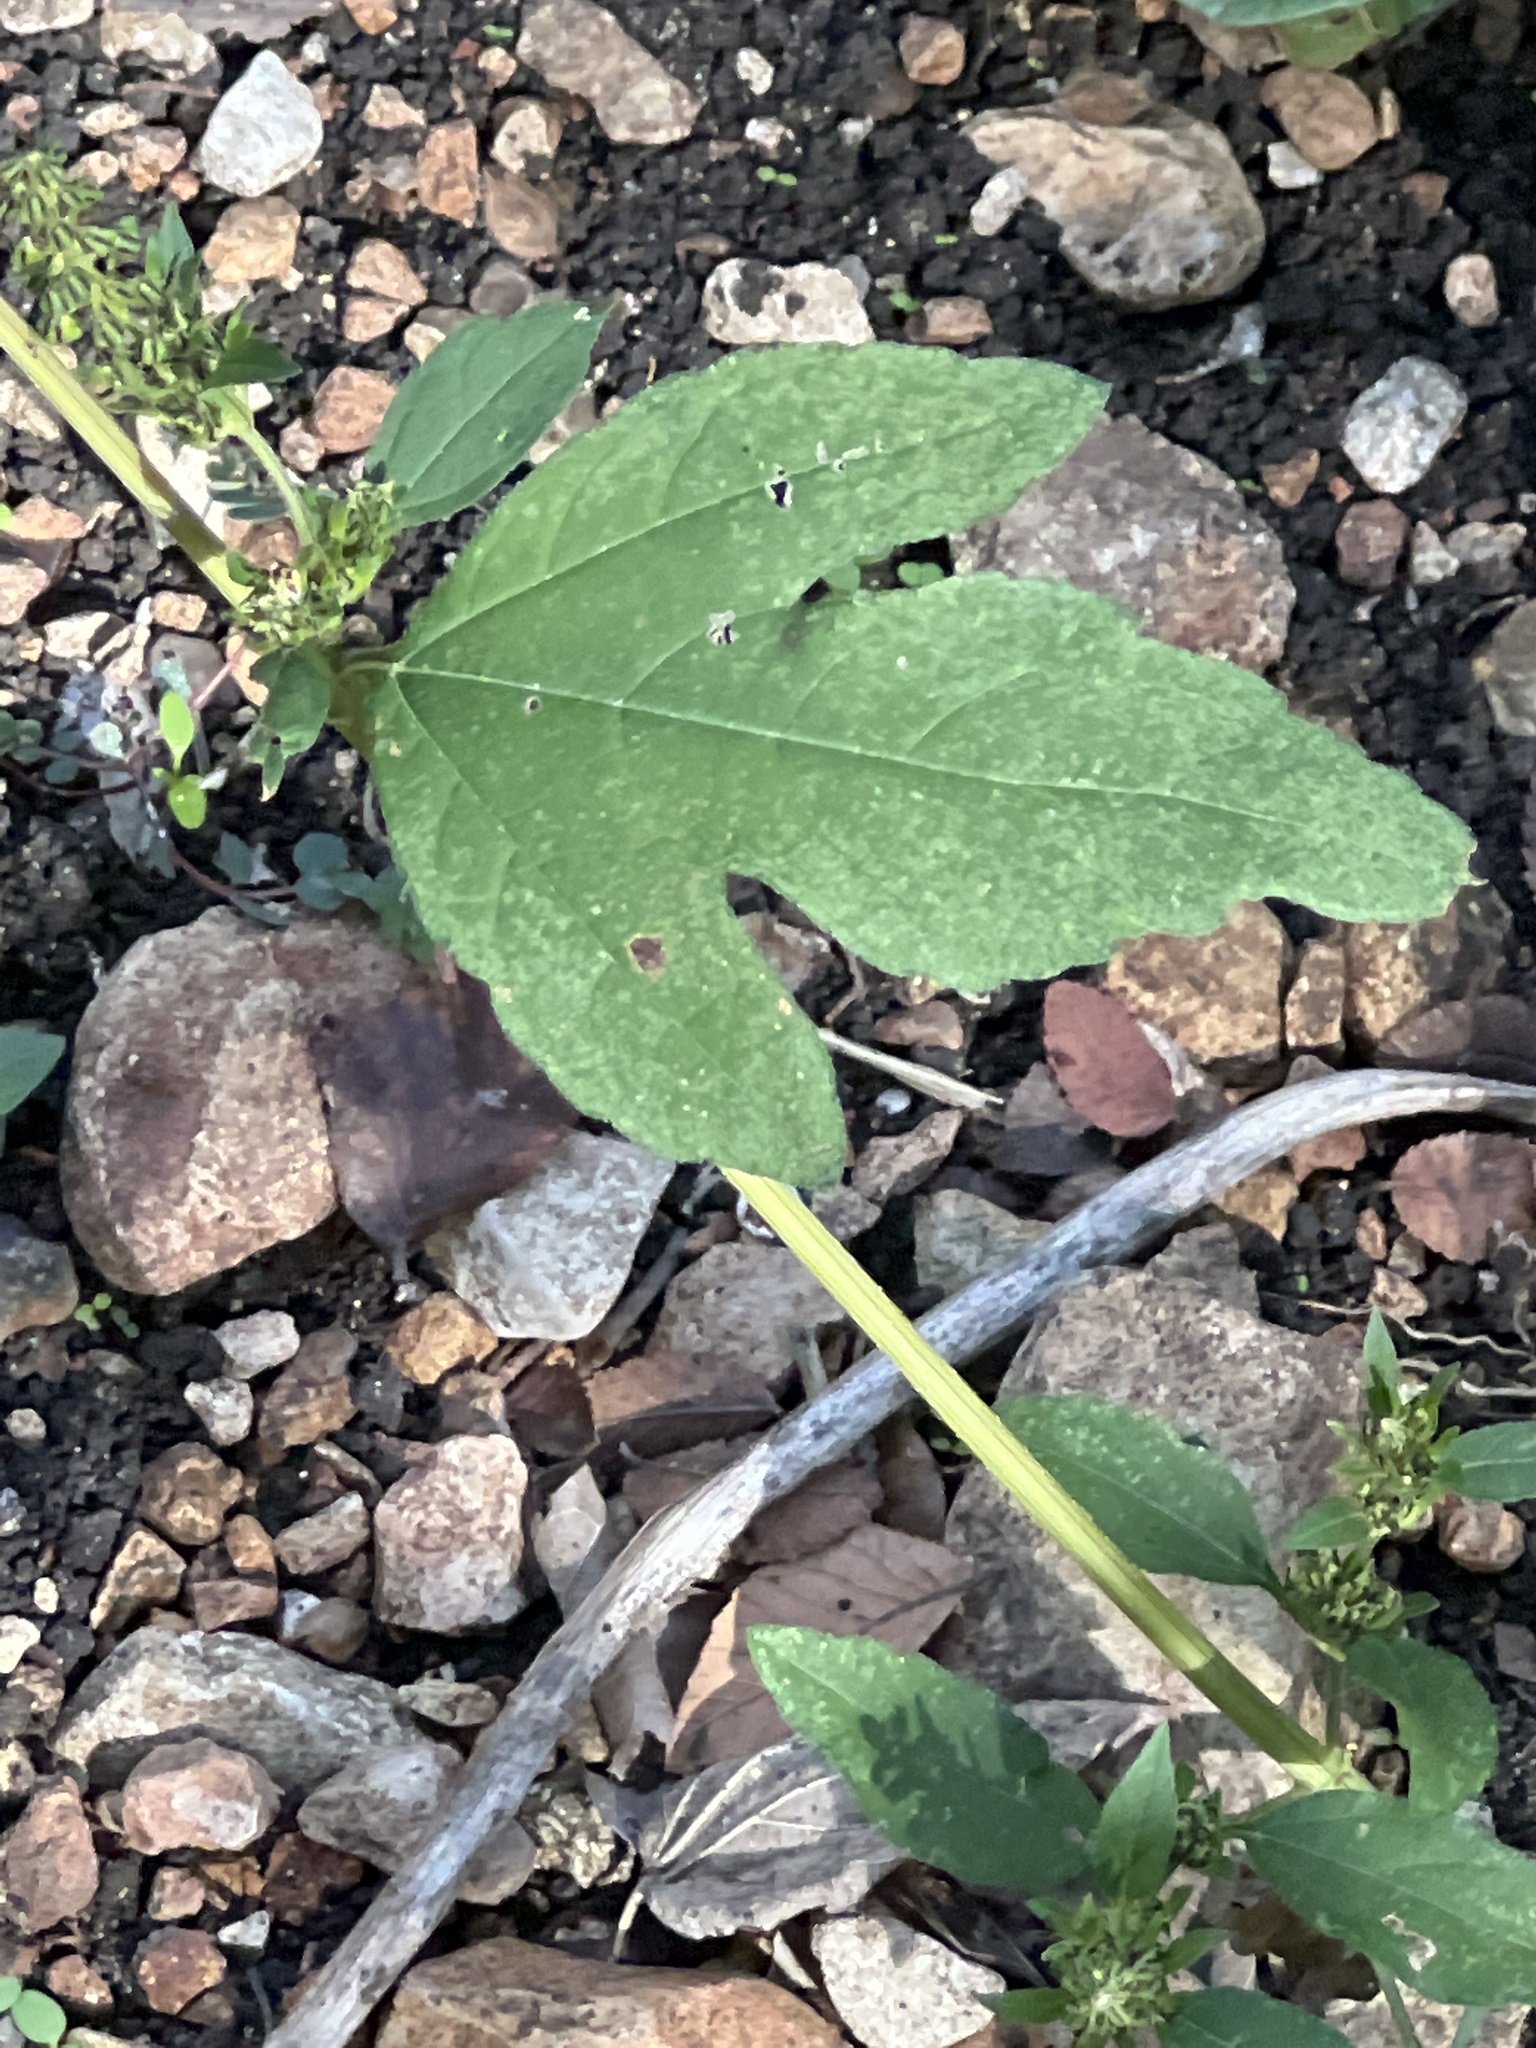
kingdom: Plantae
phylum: Tracheophyta
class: Magnoliopsida
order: Asterales
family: Asteraceae
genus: Ambrosia
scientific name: Ambrosia trifida
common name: Giant ragweed
